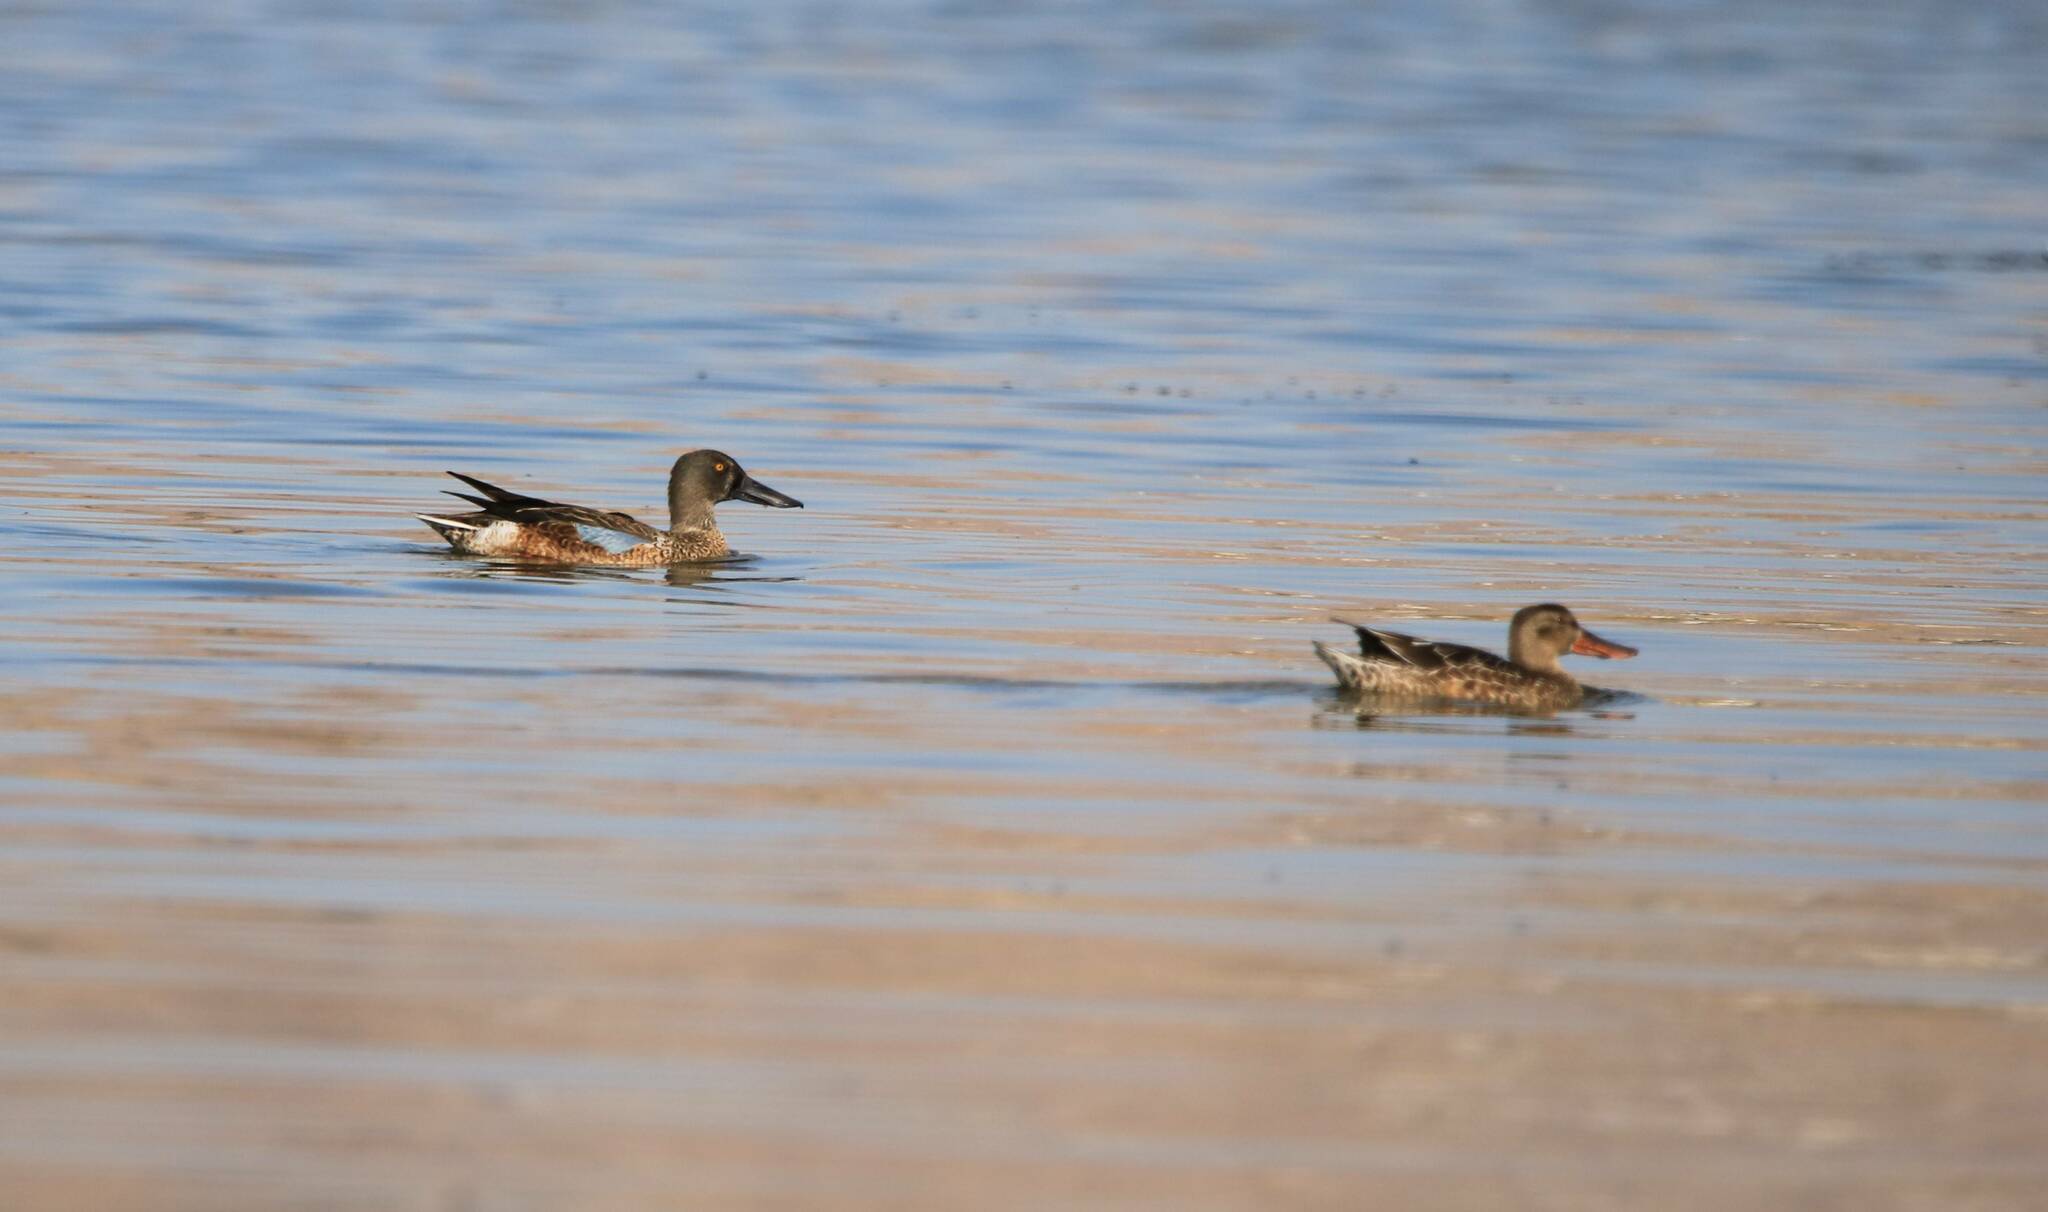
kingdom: Animalia
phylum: Chordata
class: Aves
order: Anseriformes
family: Anatidae
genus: Spatula
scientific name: Spatula clypeata
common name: Northern shoveler
